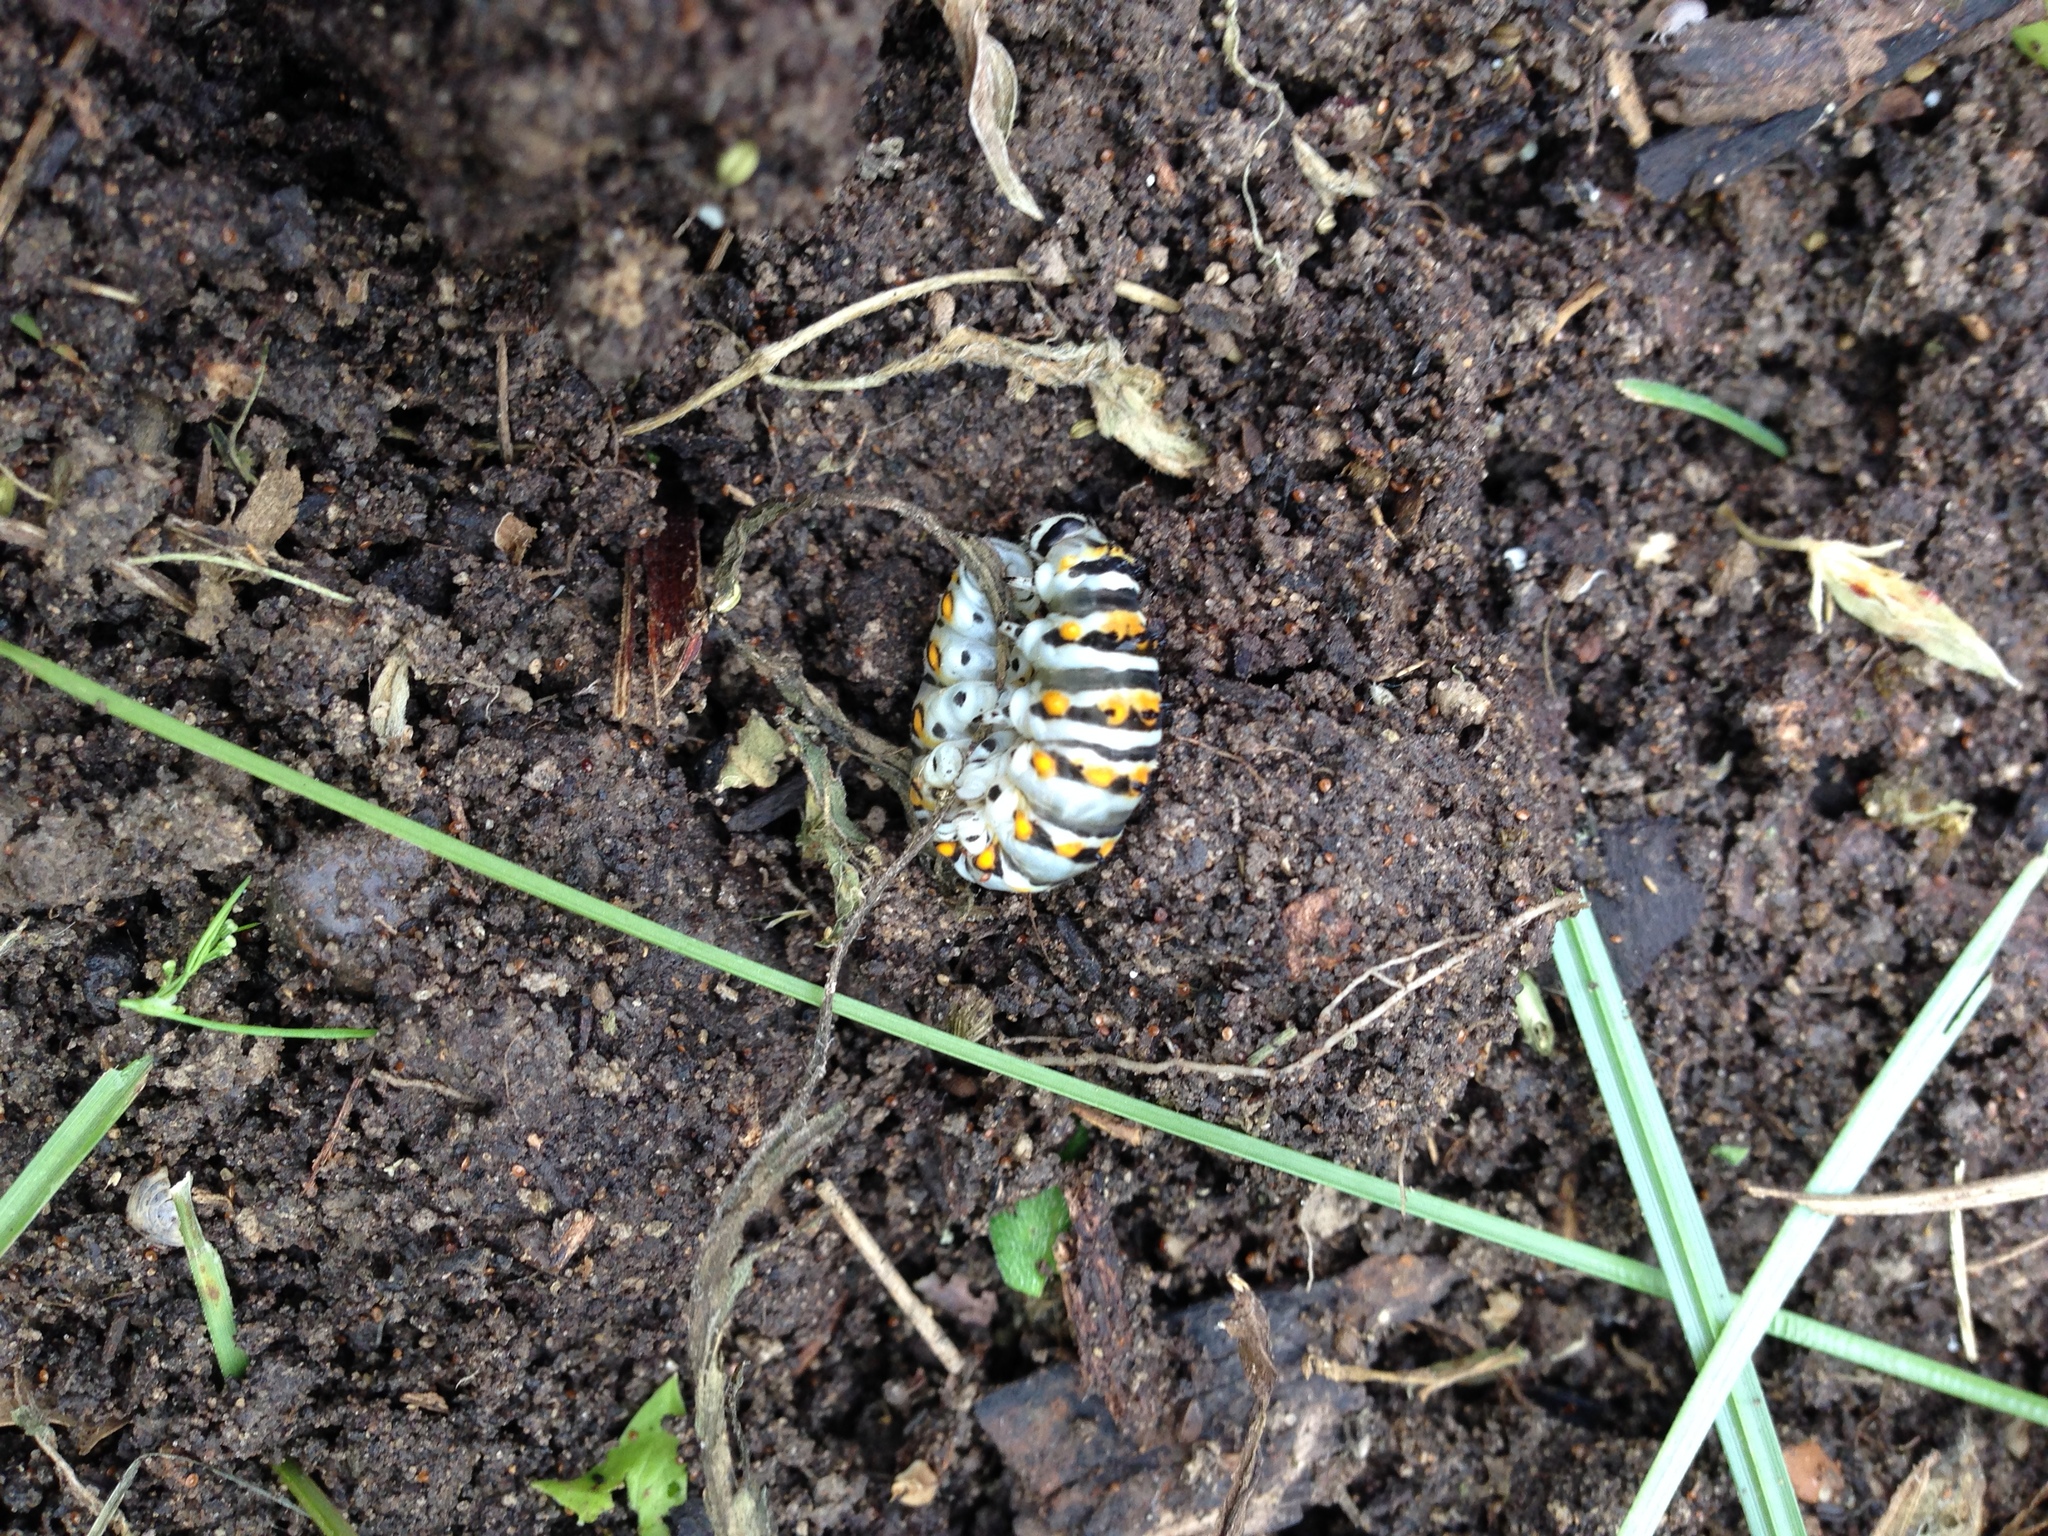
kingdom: Animalia
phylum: Arthropoda
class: Insecta
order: Lepidoptera
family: Papilionidae
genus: Papilio
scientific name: Papilio polyxenes
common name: Black swallowtail
